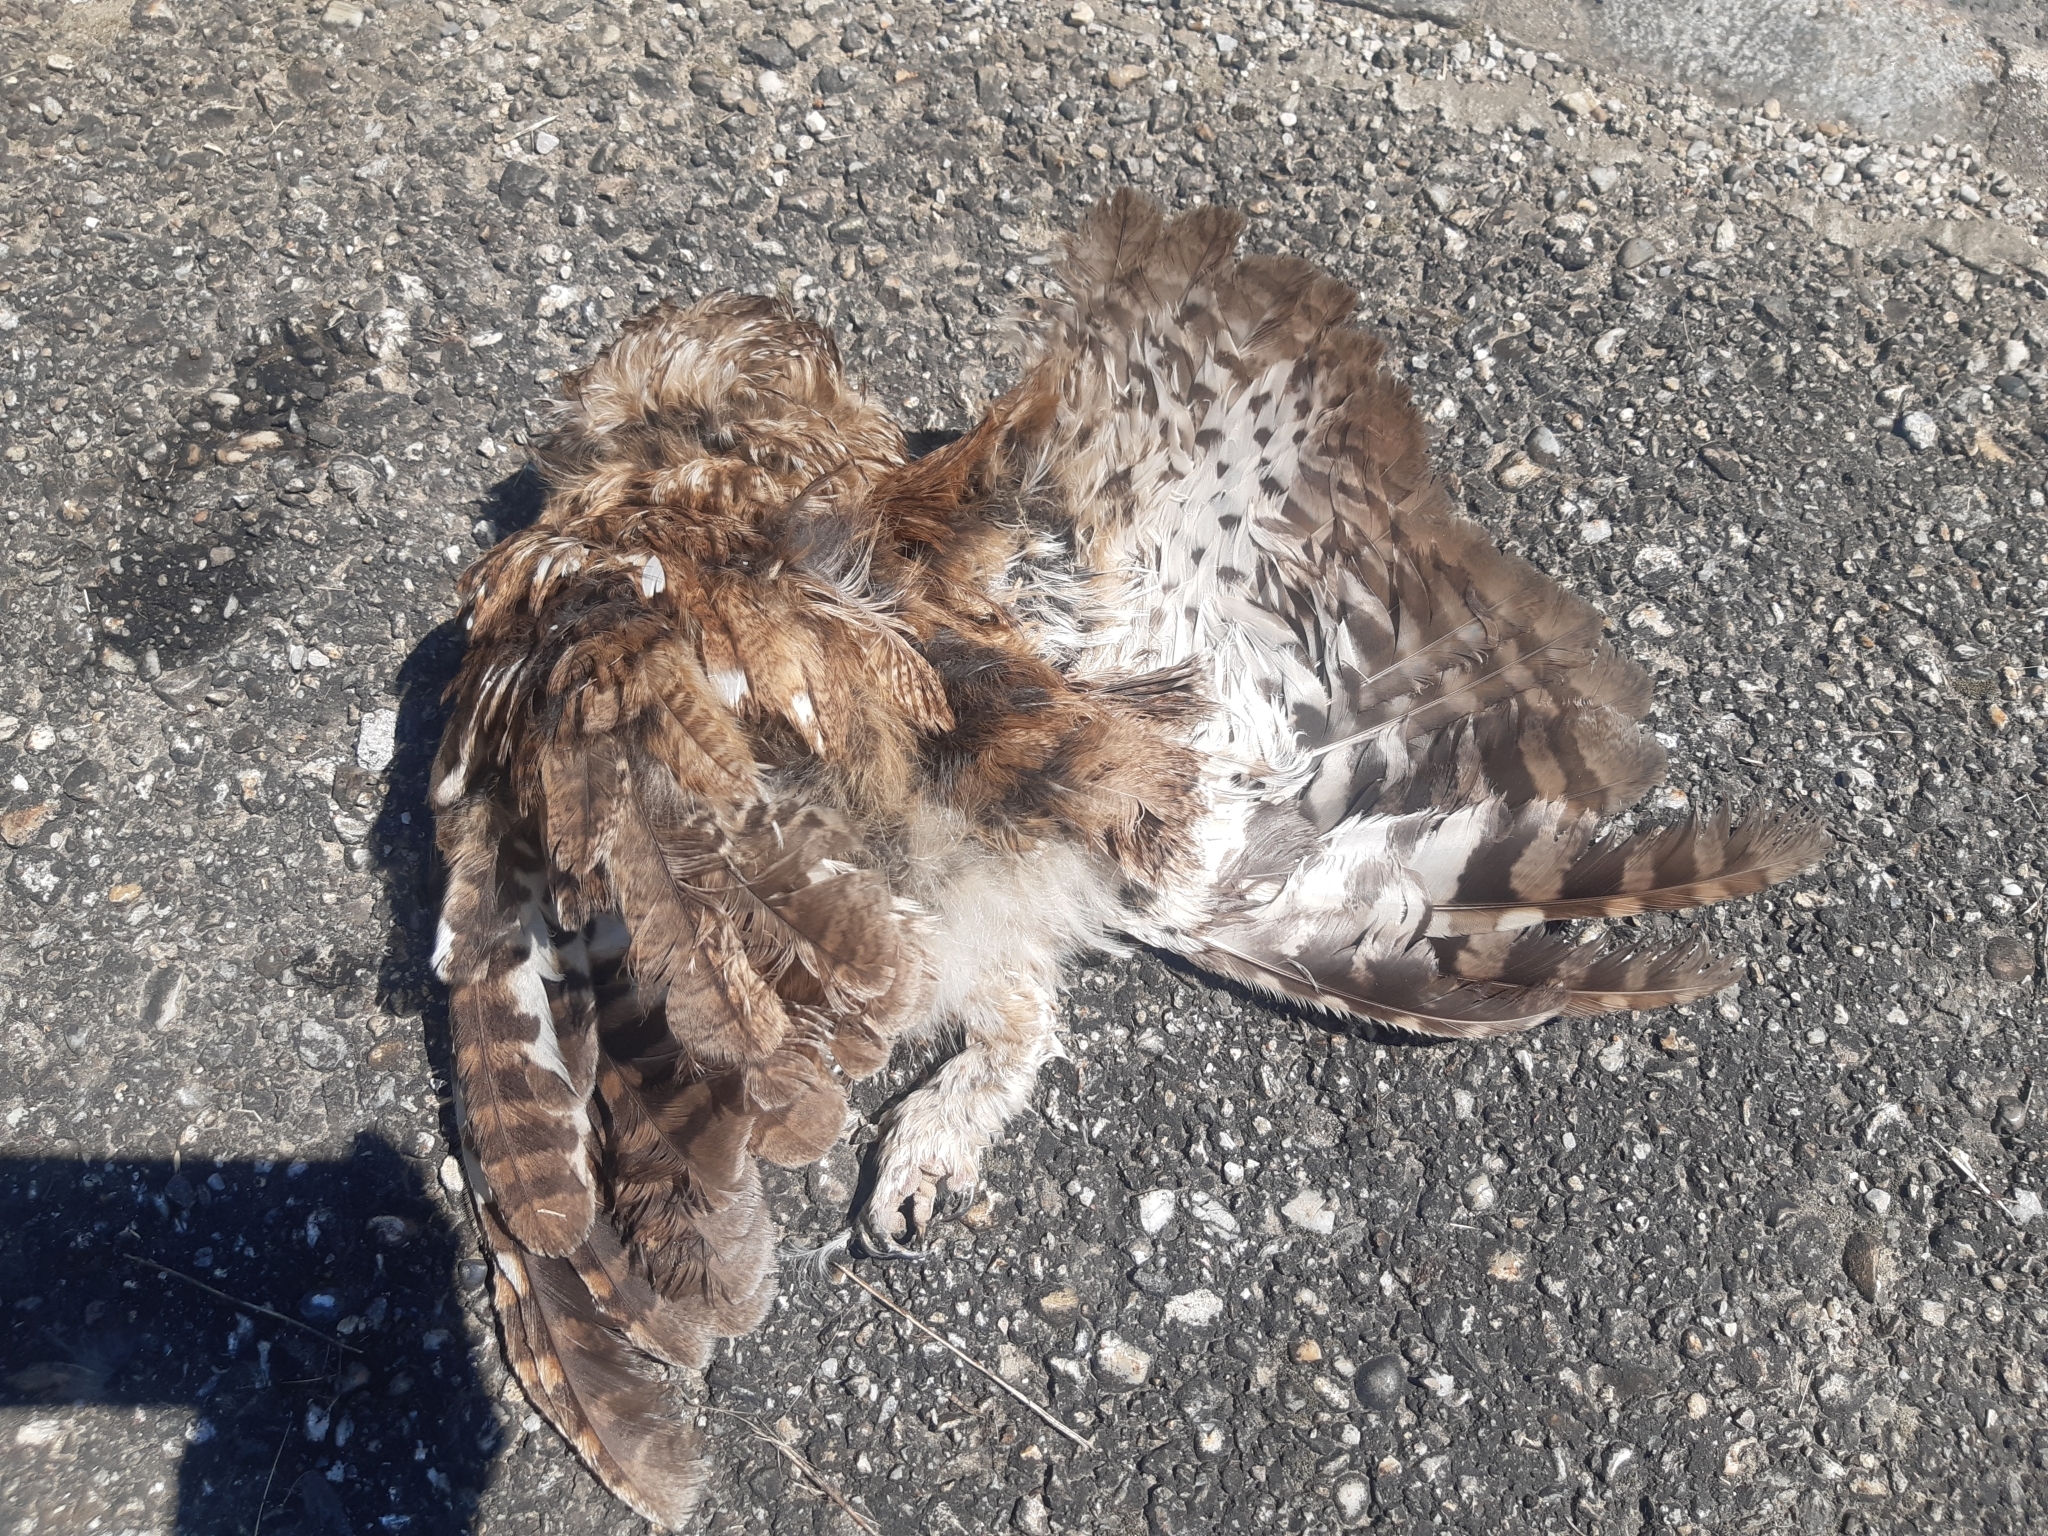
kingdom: Animalia
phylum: Chordata
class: Aves
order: Strigiformes
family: Strigidae
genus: Strix
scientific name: Strix aluco
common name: Tawny owl
